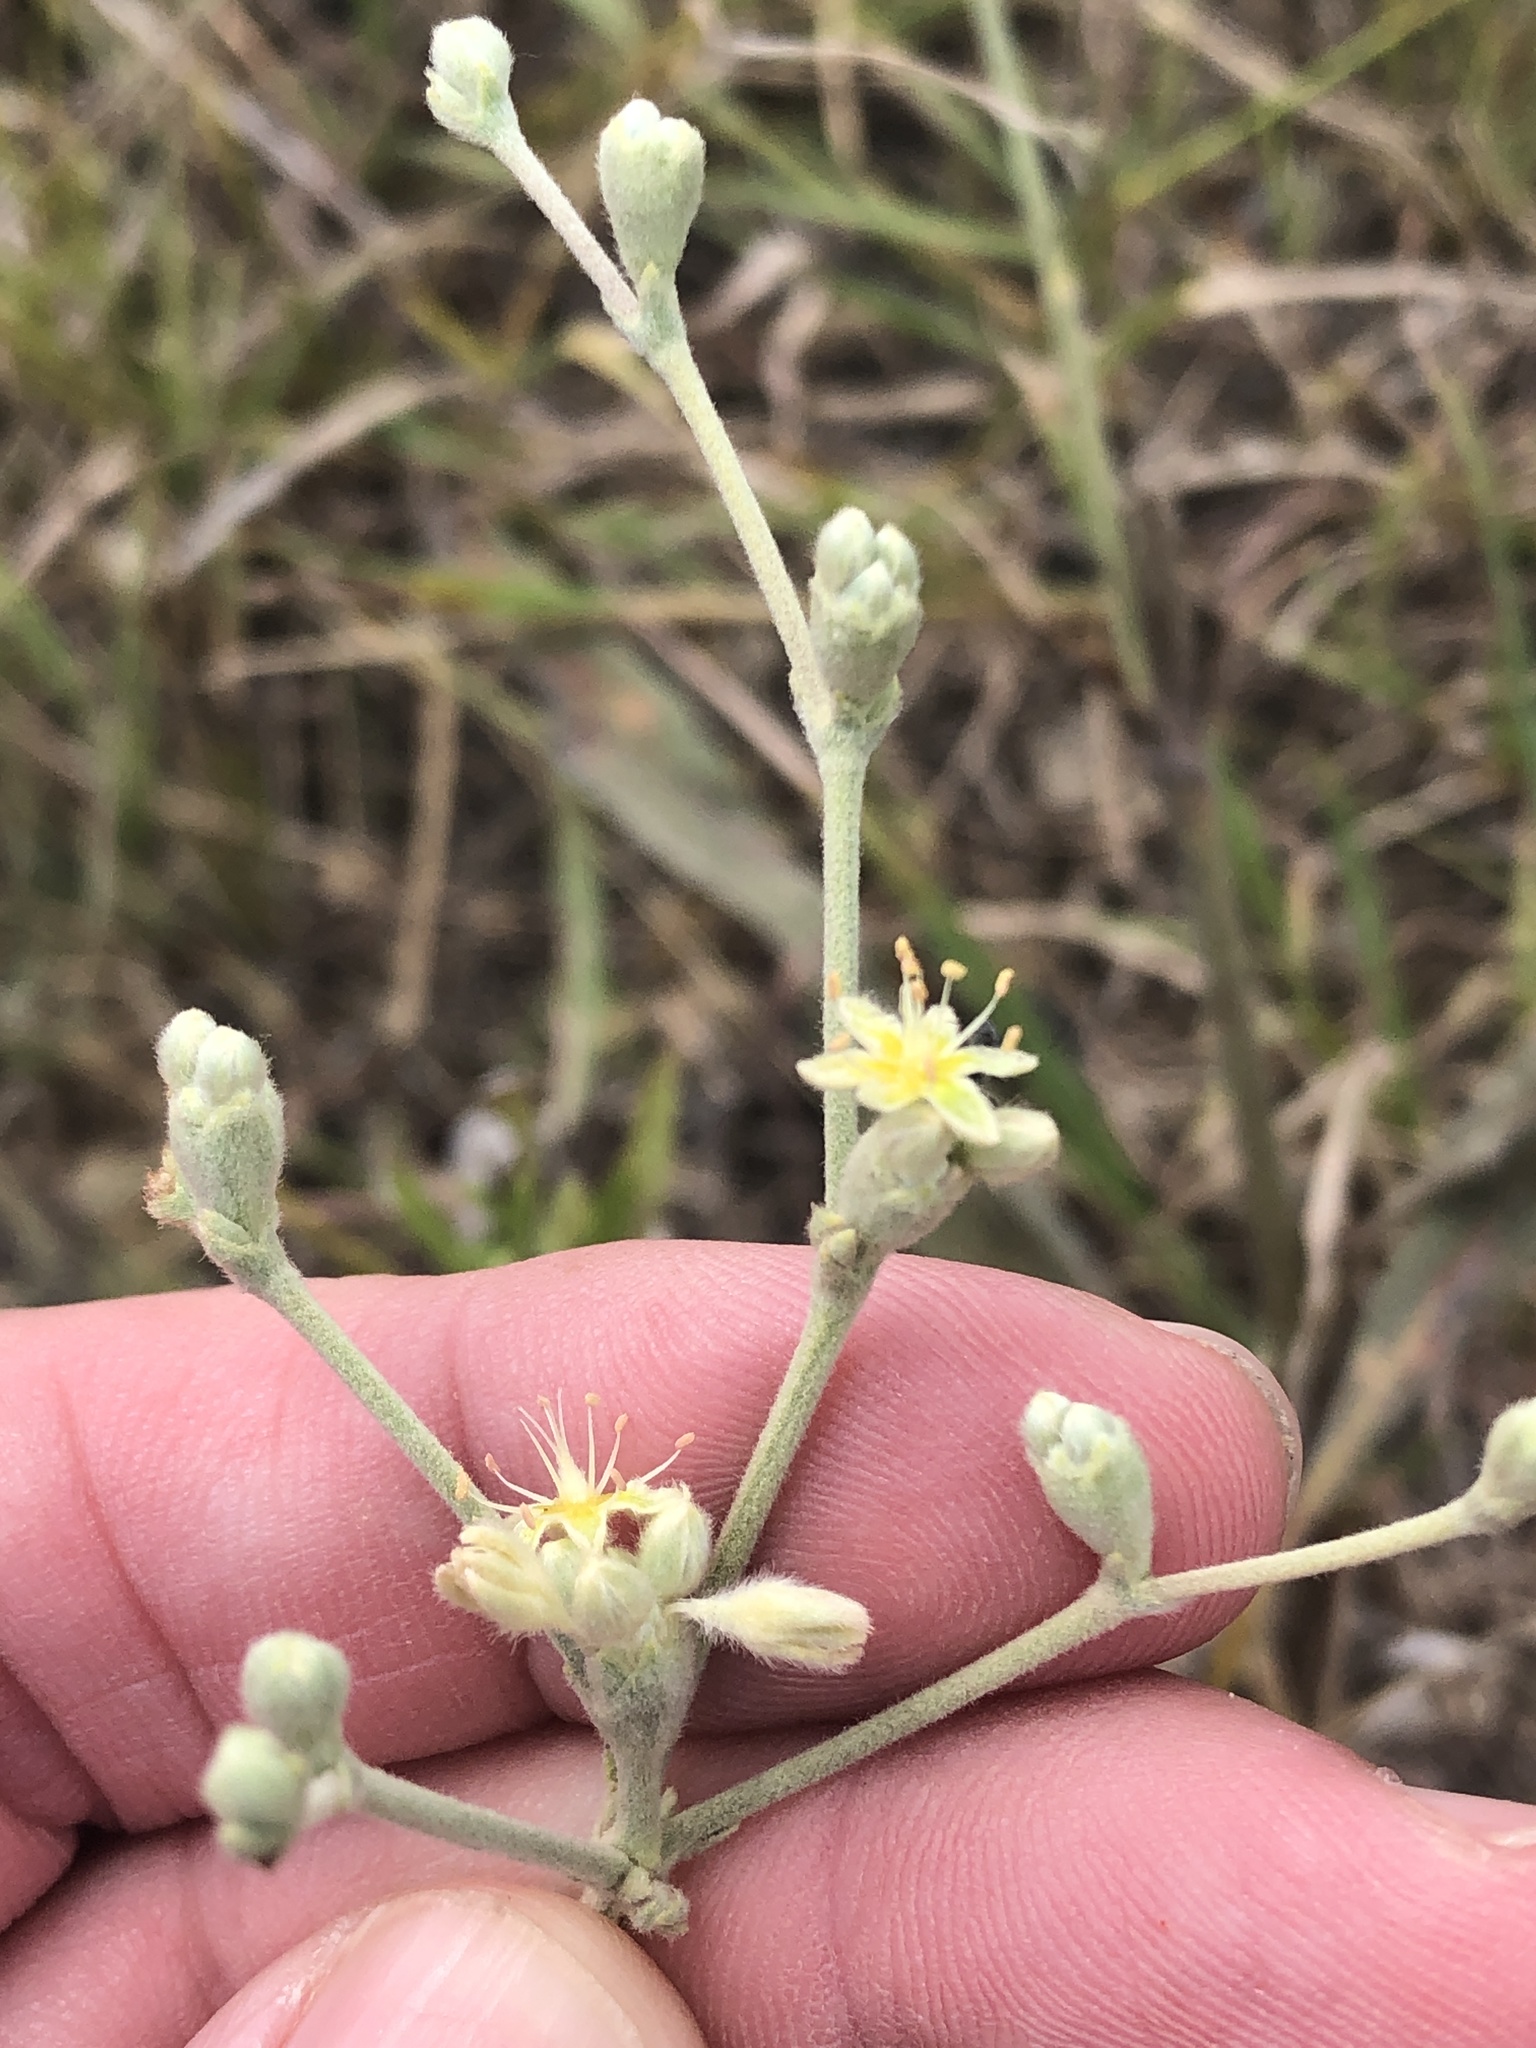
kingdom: Plantae
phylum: Tracheophyta
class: Magnoliopsida
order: Caryophyllales
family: Polygonaceae
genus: Eriogonum
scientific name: Eriogonum longifolium
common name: Longleaf wild buckwheat
